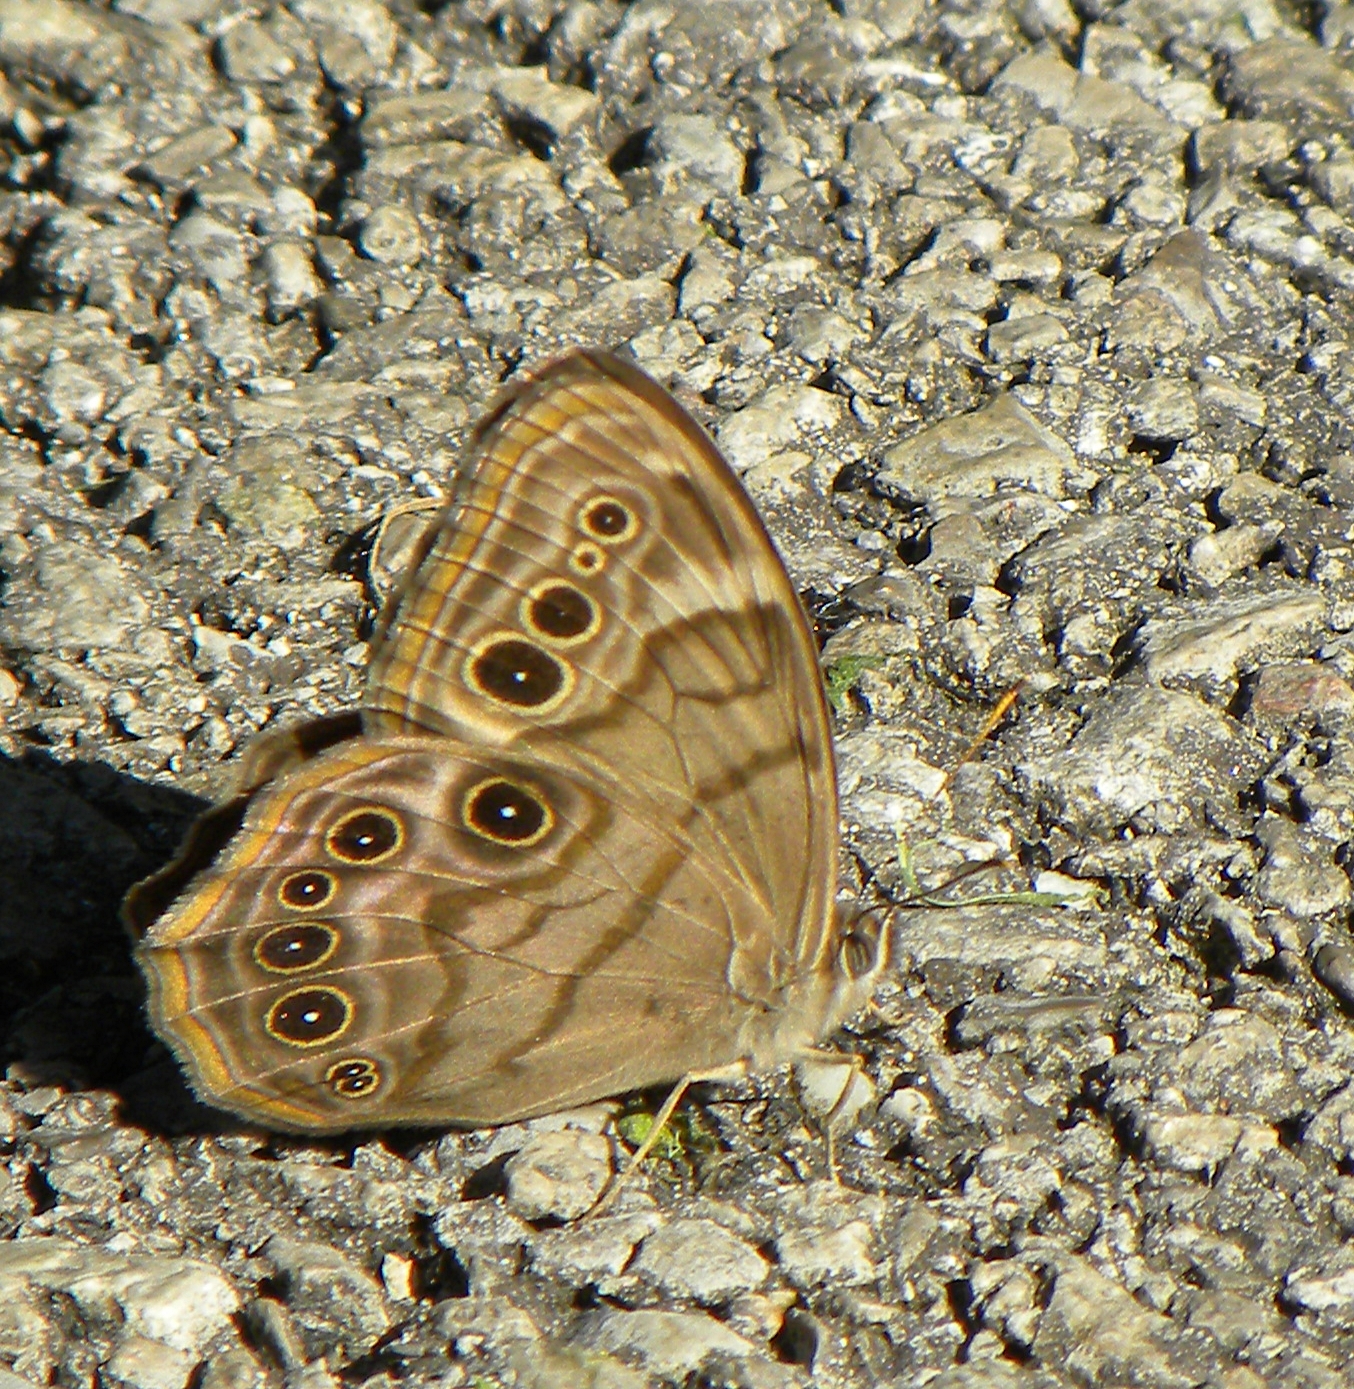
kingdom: Animalia
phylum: Arthropoda
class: Insecta
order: Lepidoptera
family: Nymphalidae
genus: Lethe
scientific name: Lethe anthedon
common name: Northern pearly-eye
